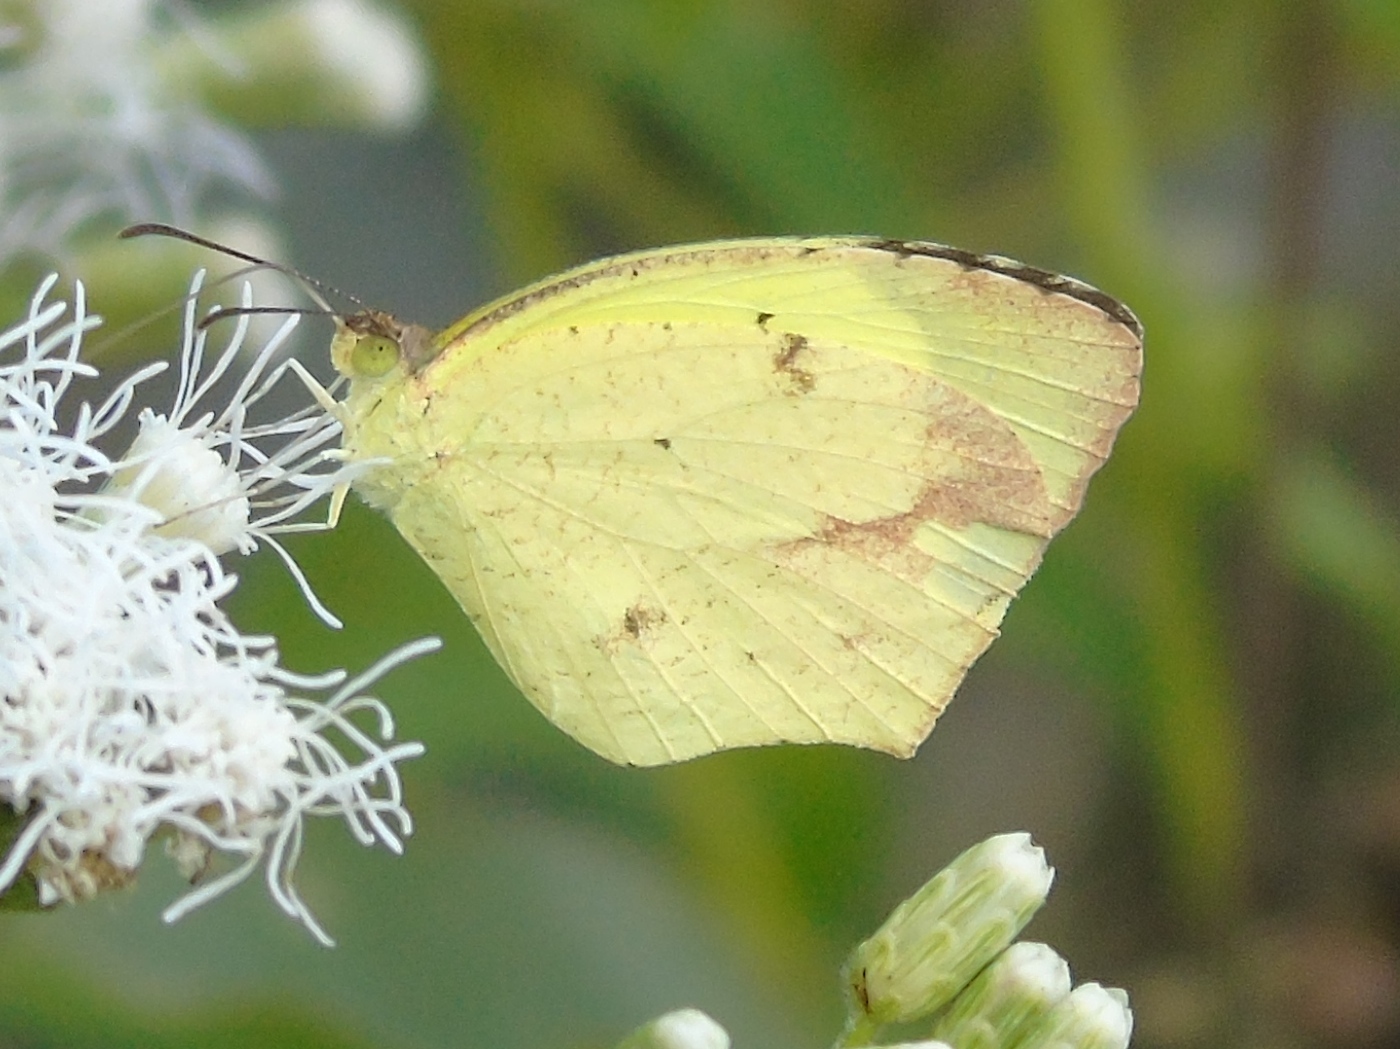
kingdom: Animalia
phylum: Arthropoda
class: Insecta
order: Lepidoptera
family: Pieridae
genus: Abaeis
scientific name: Abaeis mexicana
